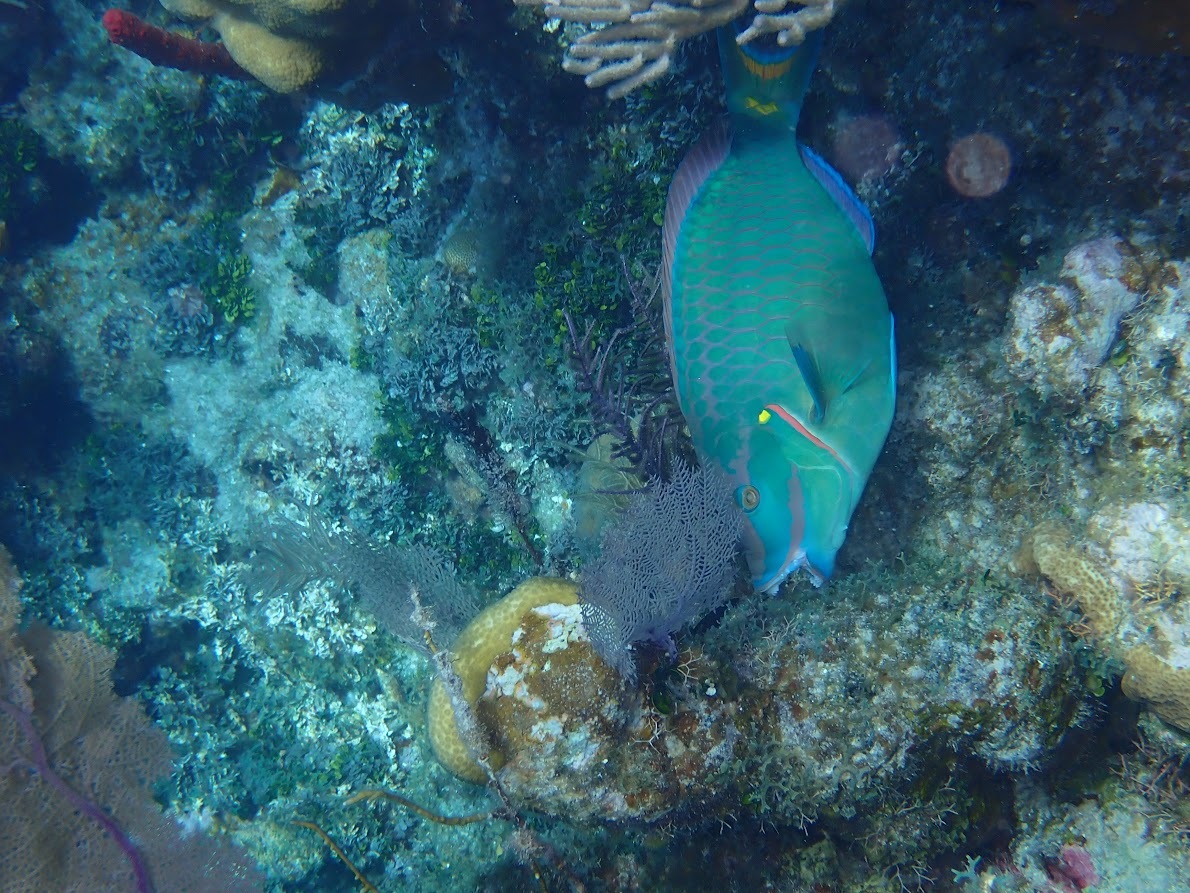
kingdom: Animalia
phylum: Chordata
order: Perciformes
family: Scaridae
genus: Sparisoma
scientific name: Sparisoma viride
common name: Stoplight parrotfish
